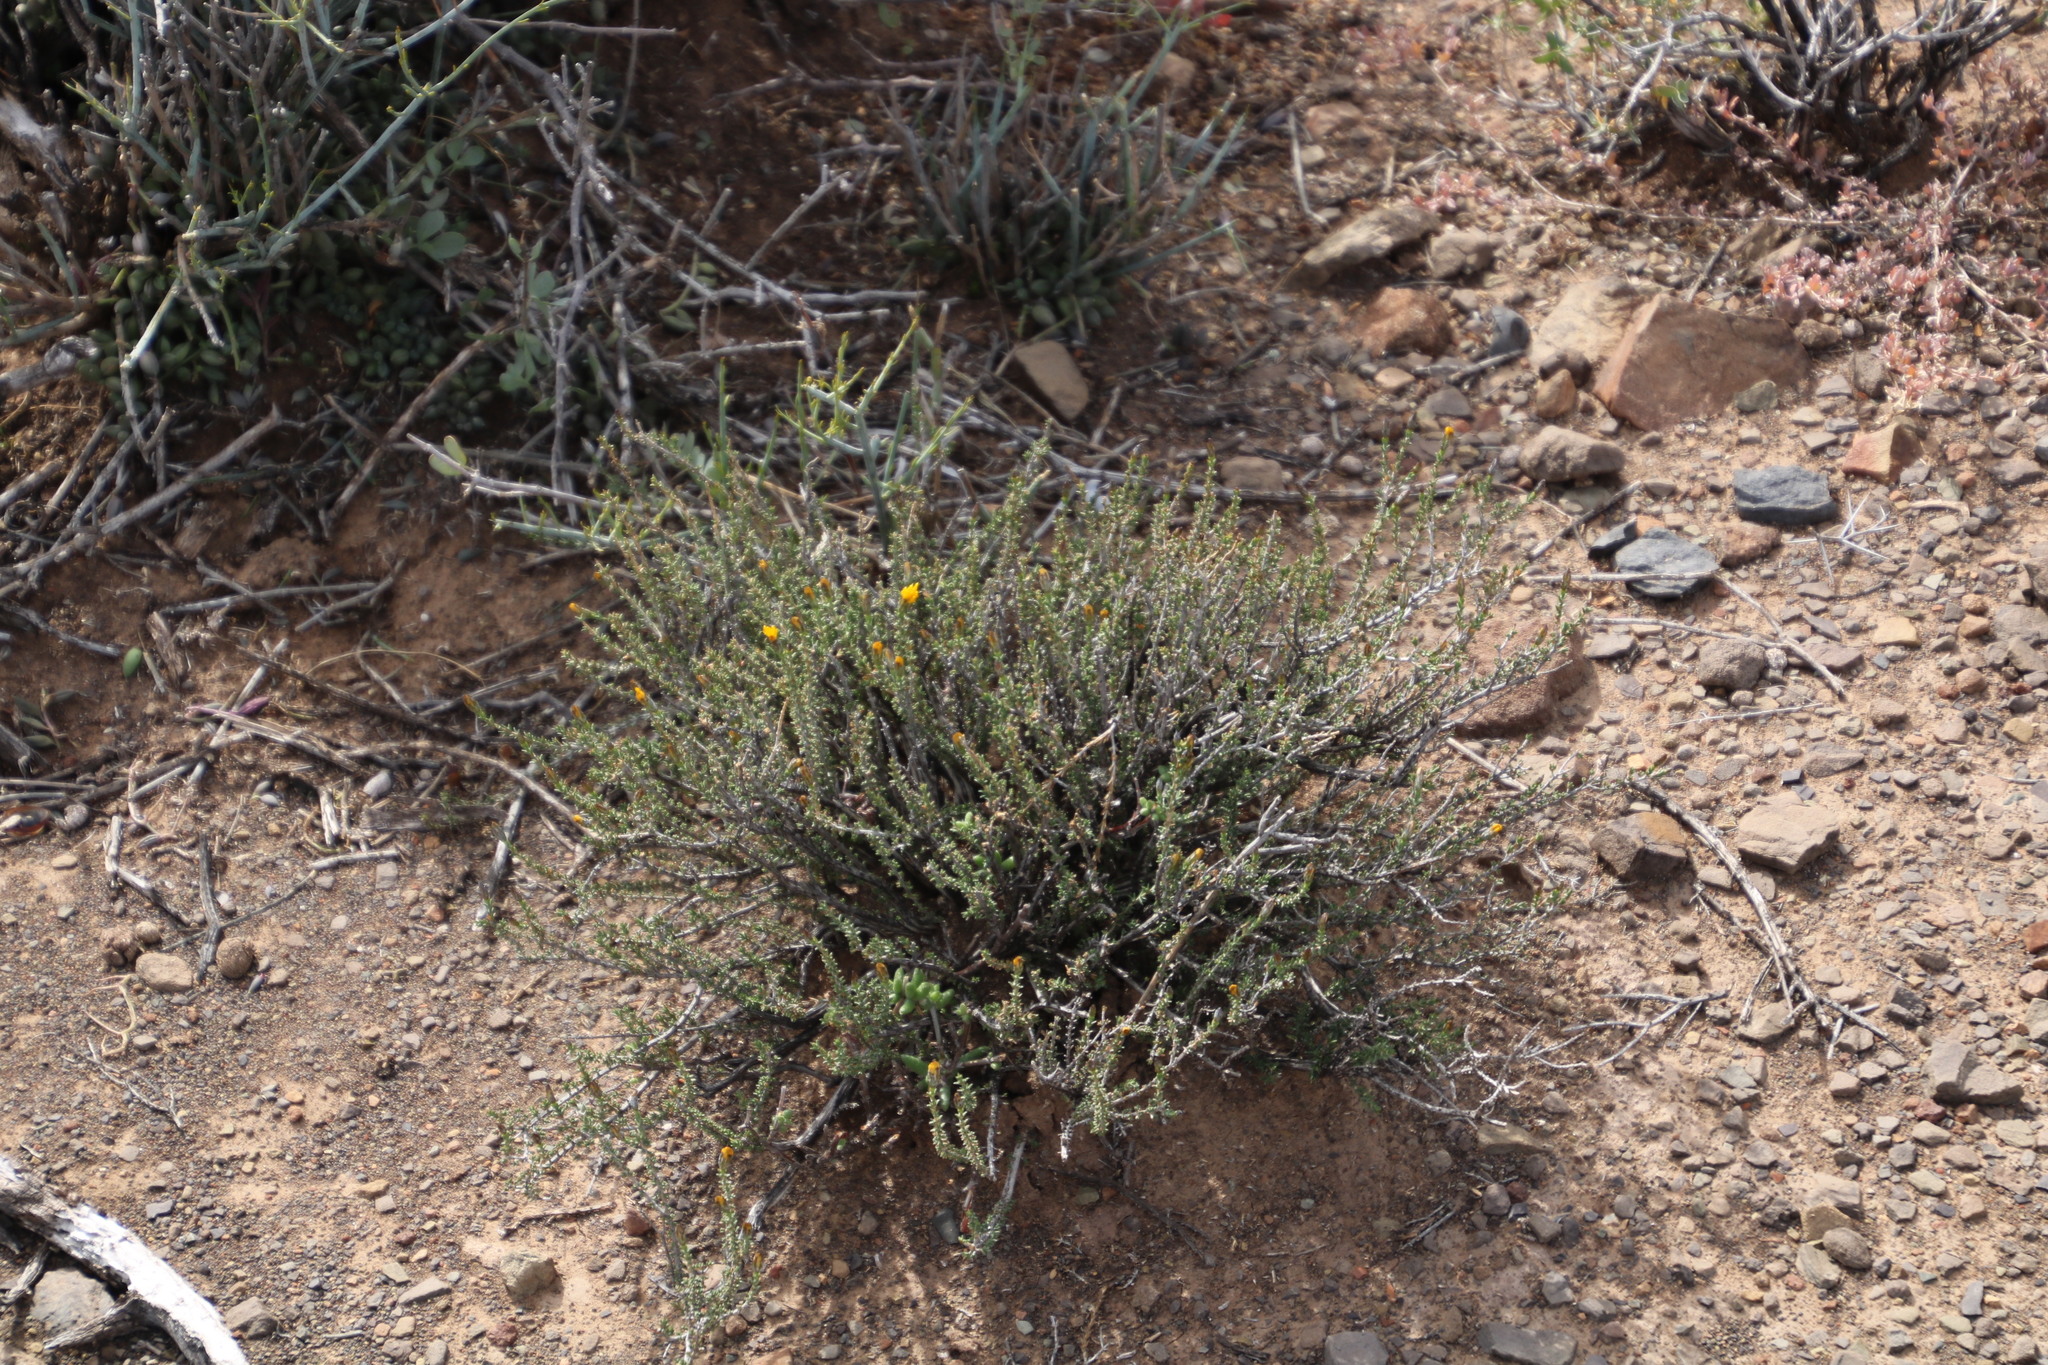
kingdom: Plantae
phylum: Tracheophyta
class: Magnoliopsida
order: Asterales
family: Asteraceae
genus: Pteronia
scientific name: Pteronia sordida
